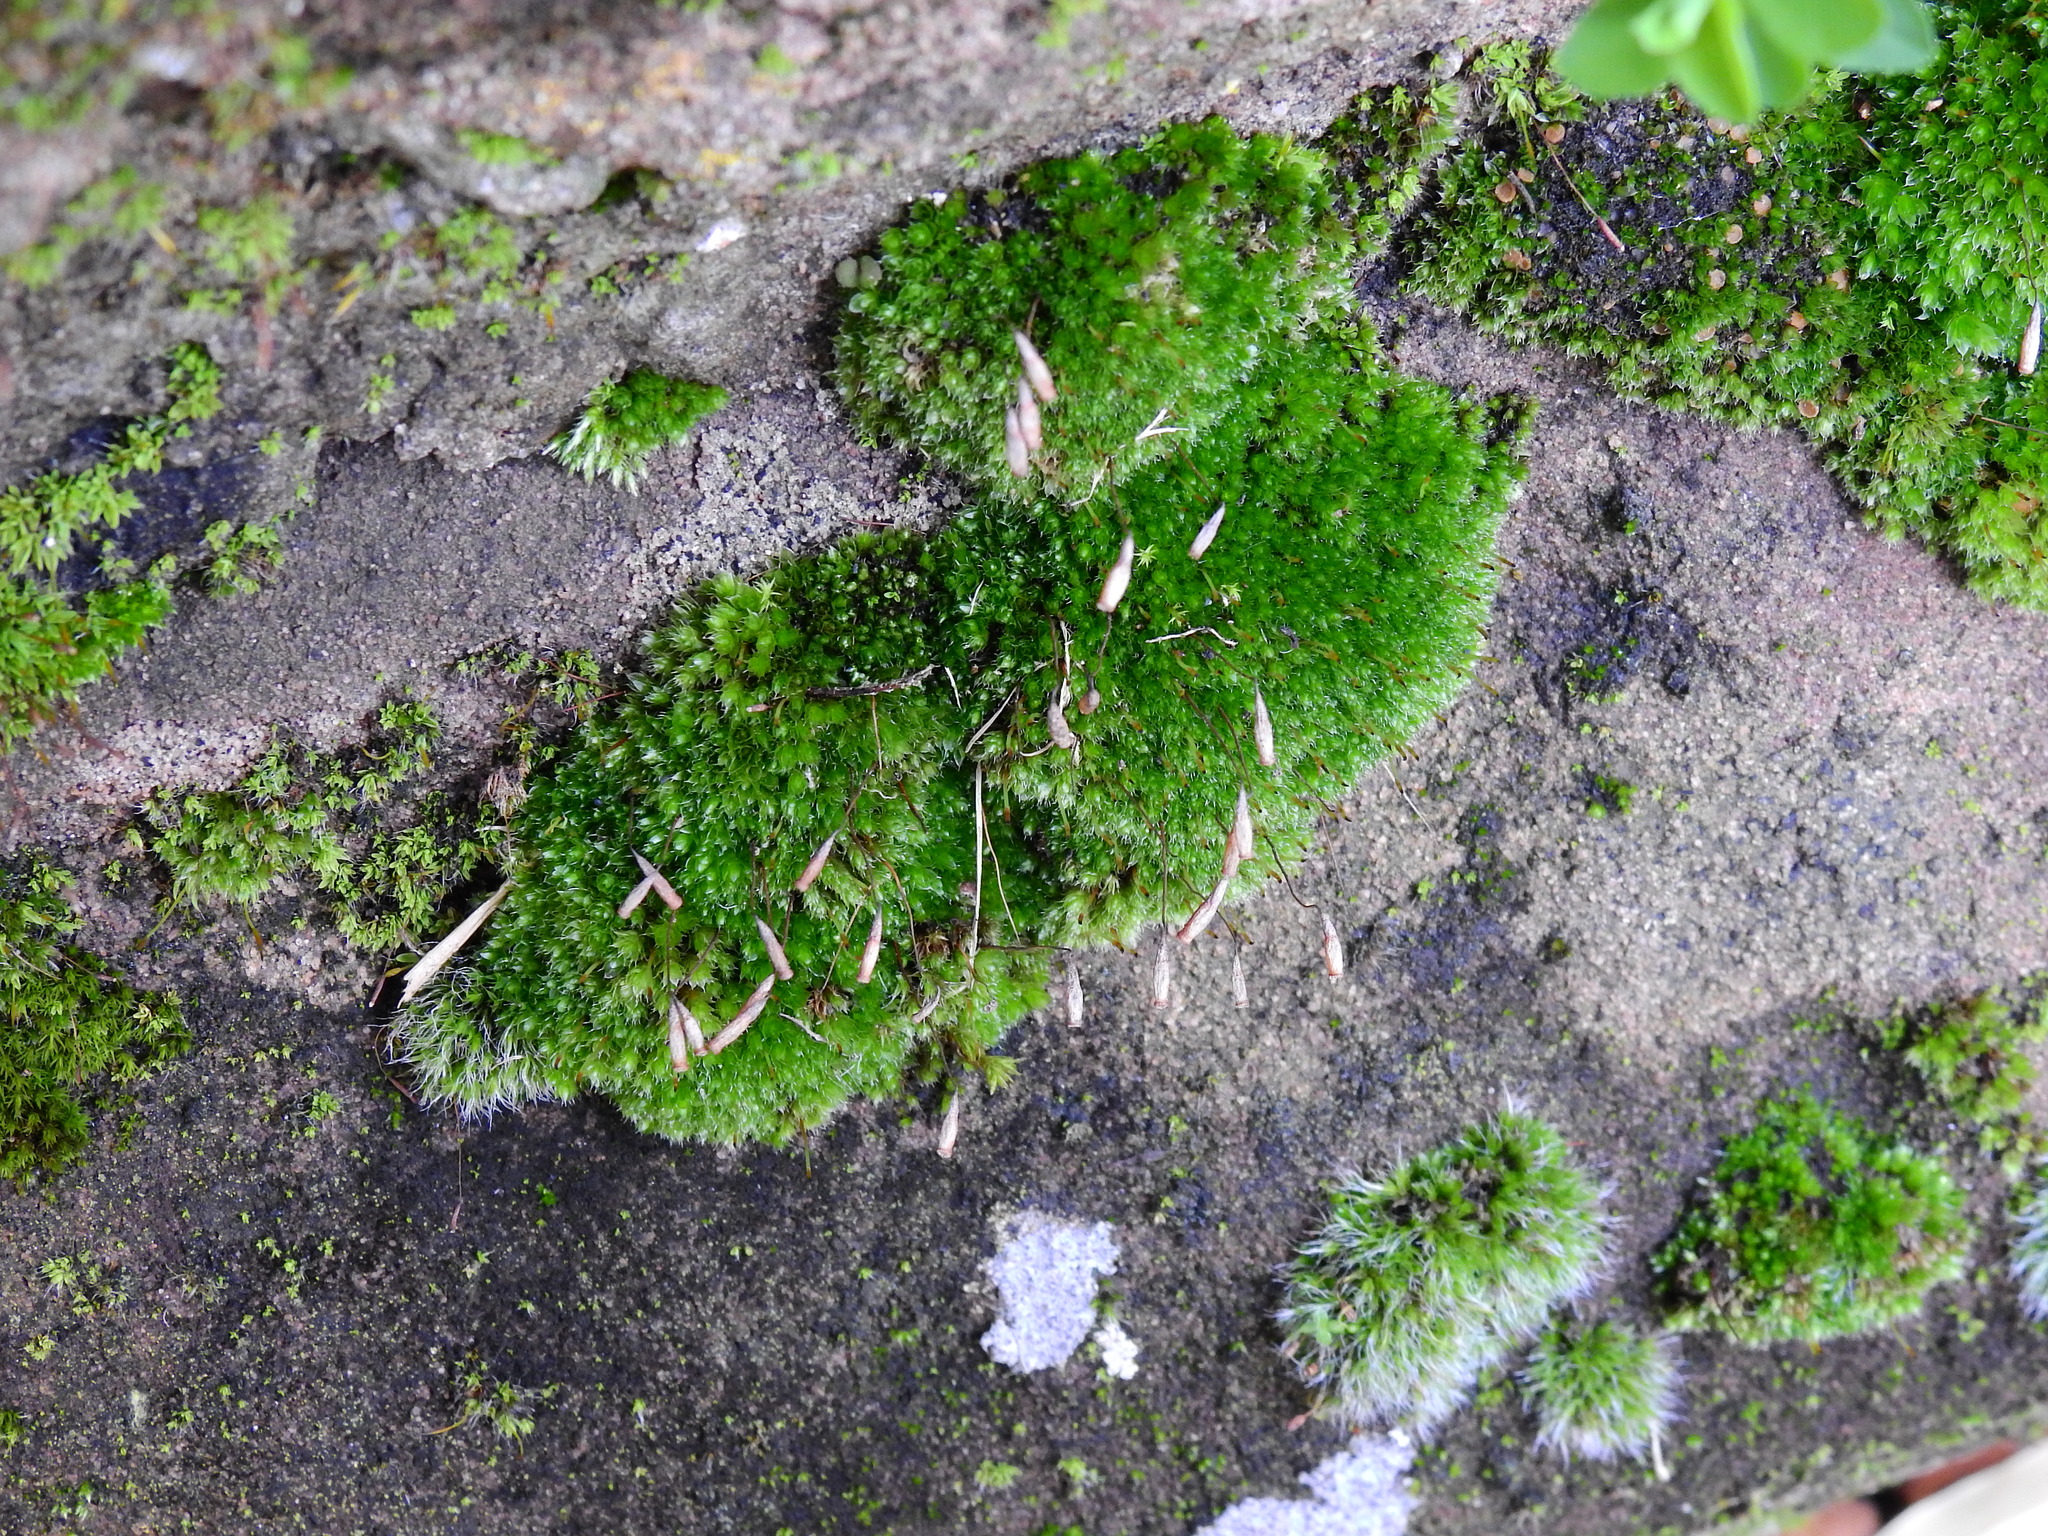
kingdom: Plantae
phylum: Bryophyta
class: Bryopsida
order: Pottiales
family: Pottiaceae
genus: Vinealobryum
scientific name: Vinealobryum insulanum
